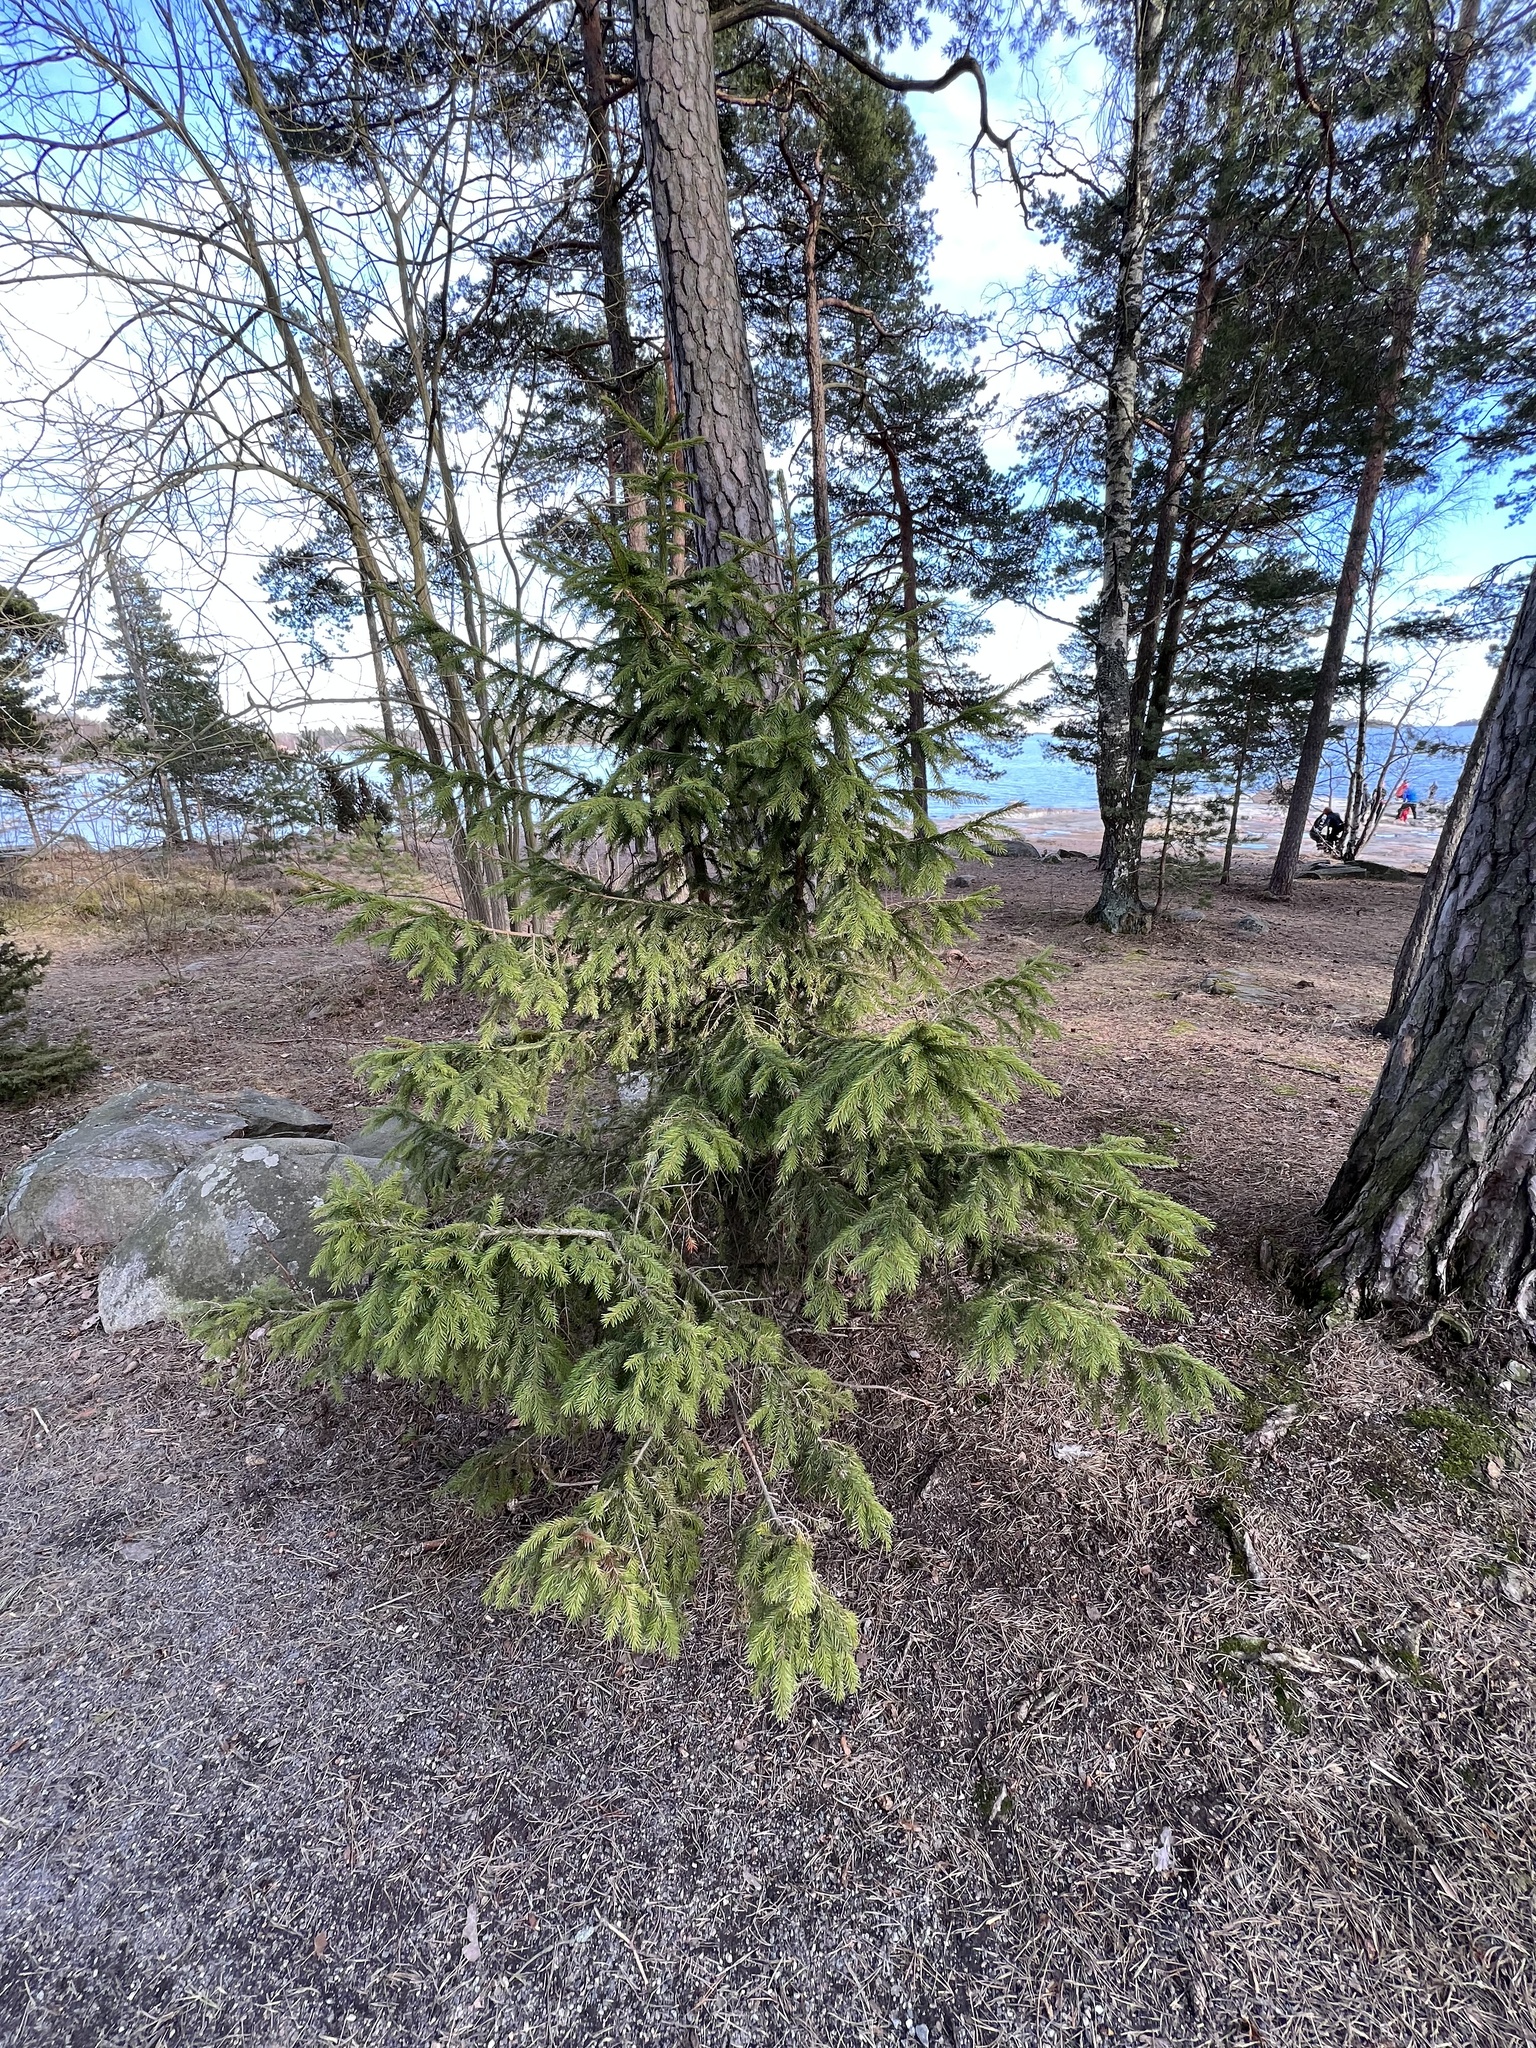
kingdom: Plantae
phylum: Tracheophyta
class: Pinopsida
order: Pinales
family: Pinaceae
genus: Picea
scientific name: Picea abies
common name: Norway spruce
